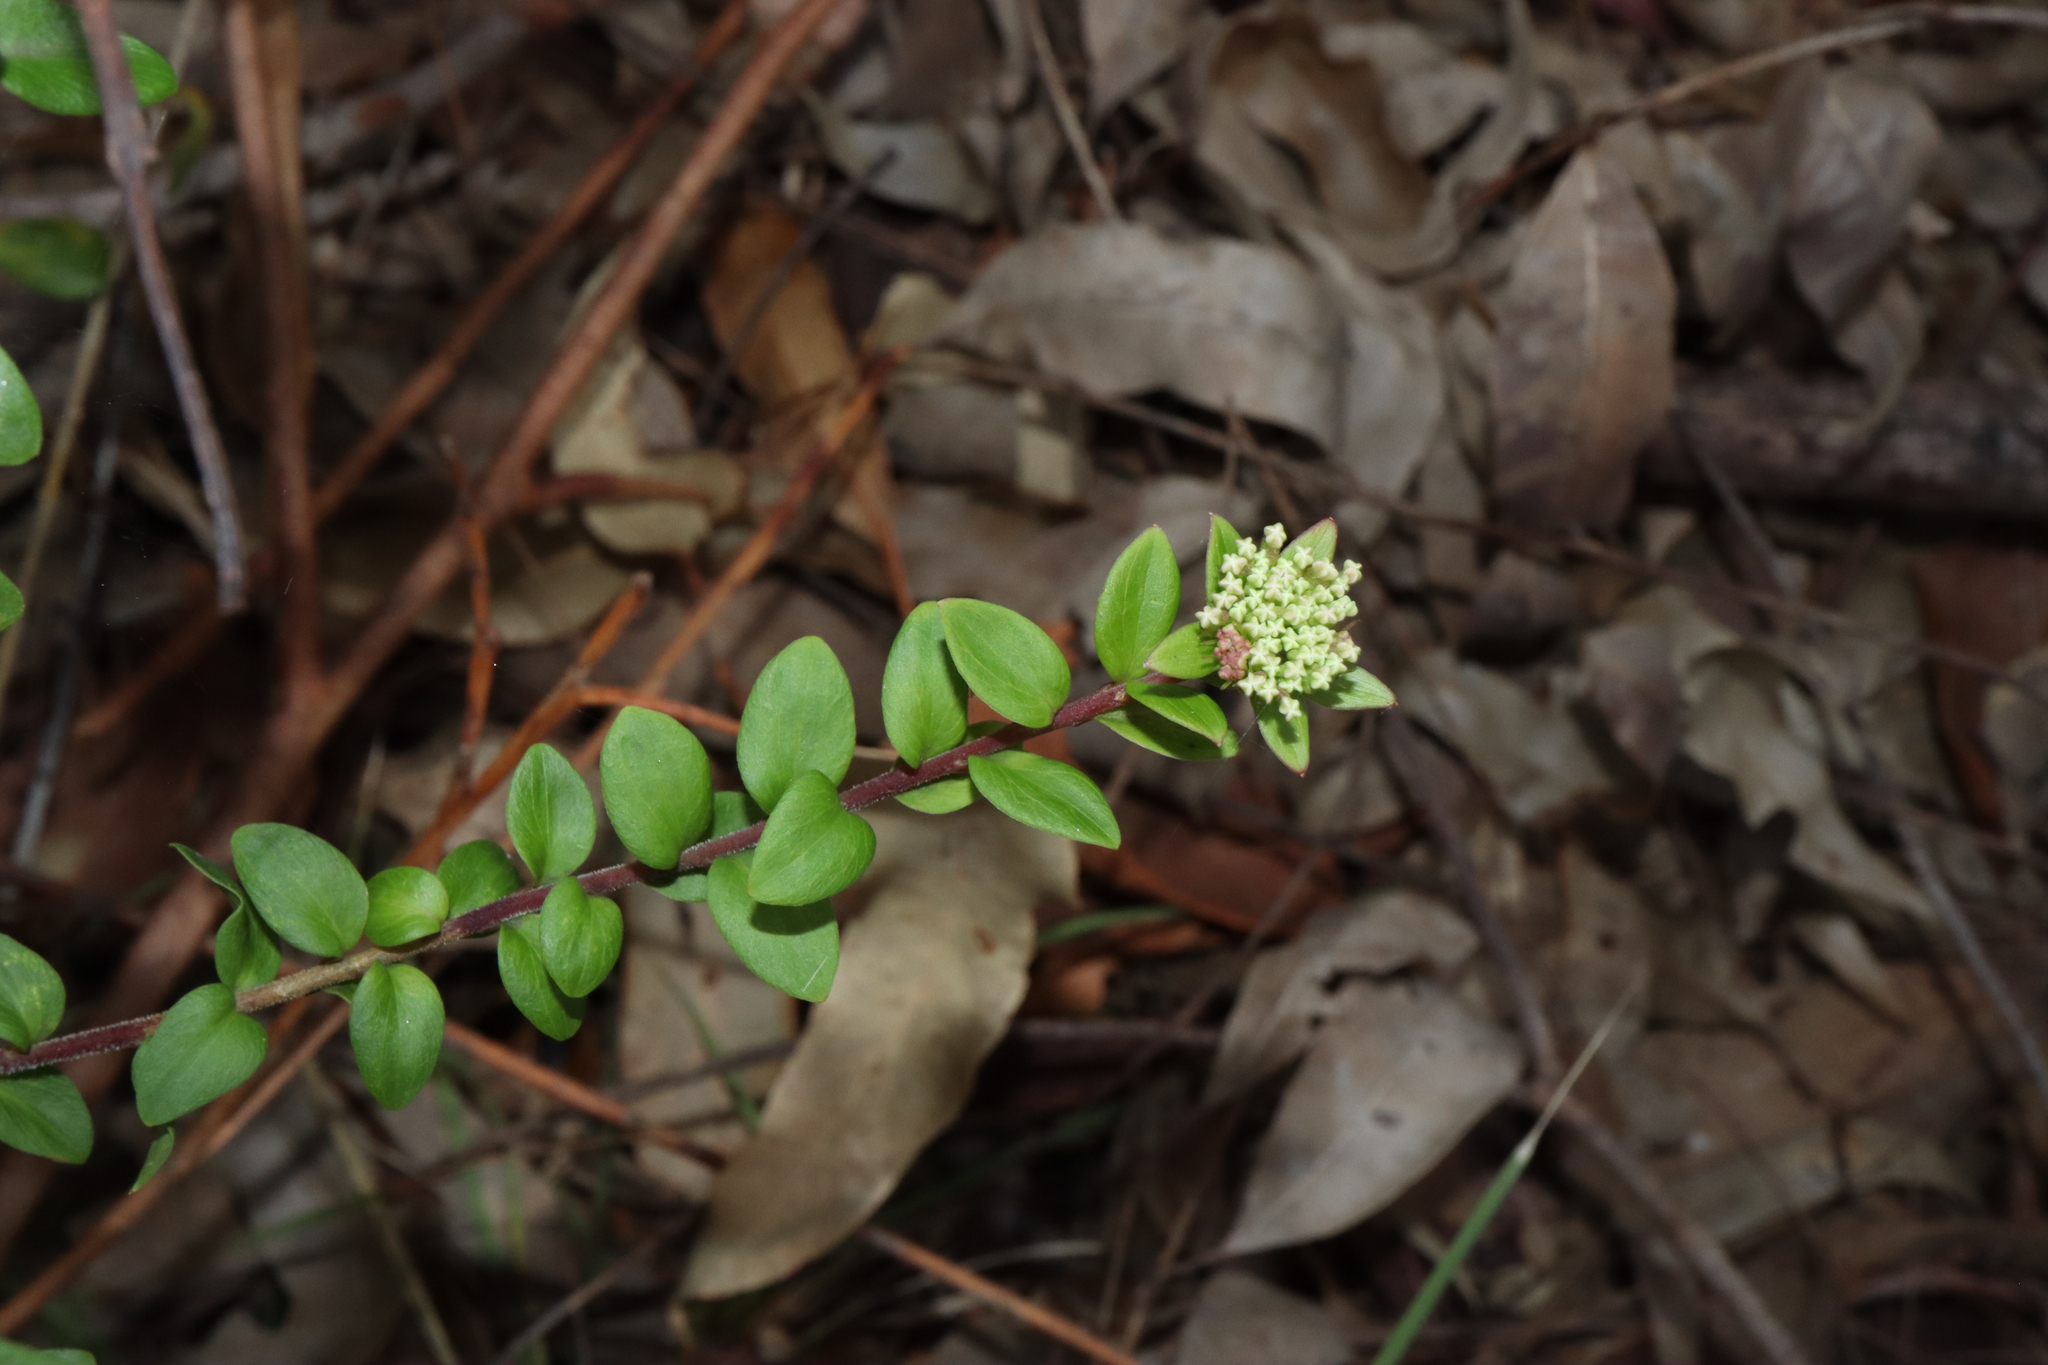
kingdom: Plantae
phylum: Tracheophyta
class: Magnoliopsida
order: Apiales
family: Apiaceae
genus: Platysace
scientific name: Platysace lanceolata
